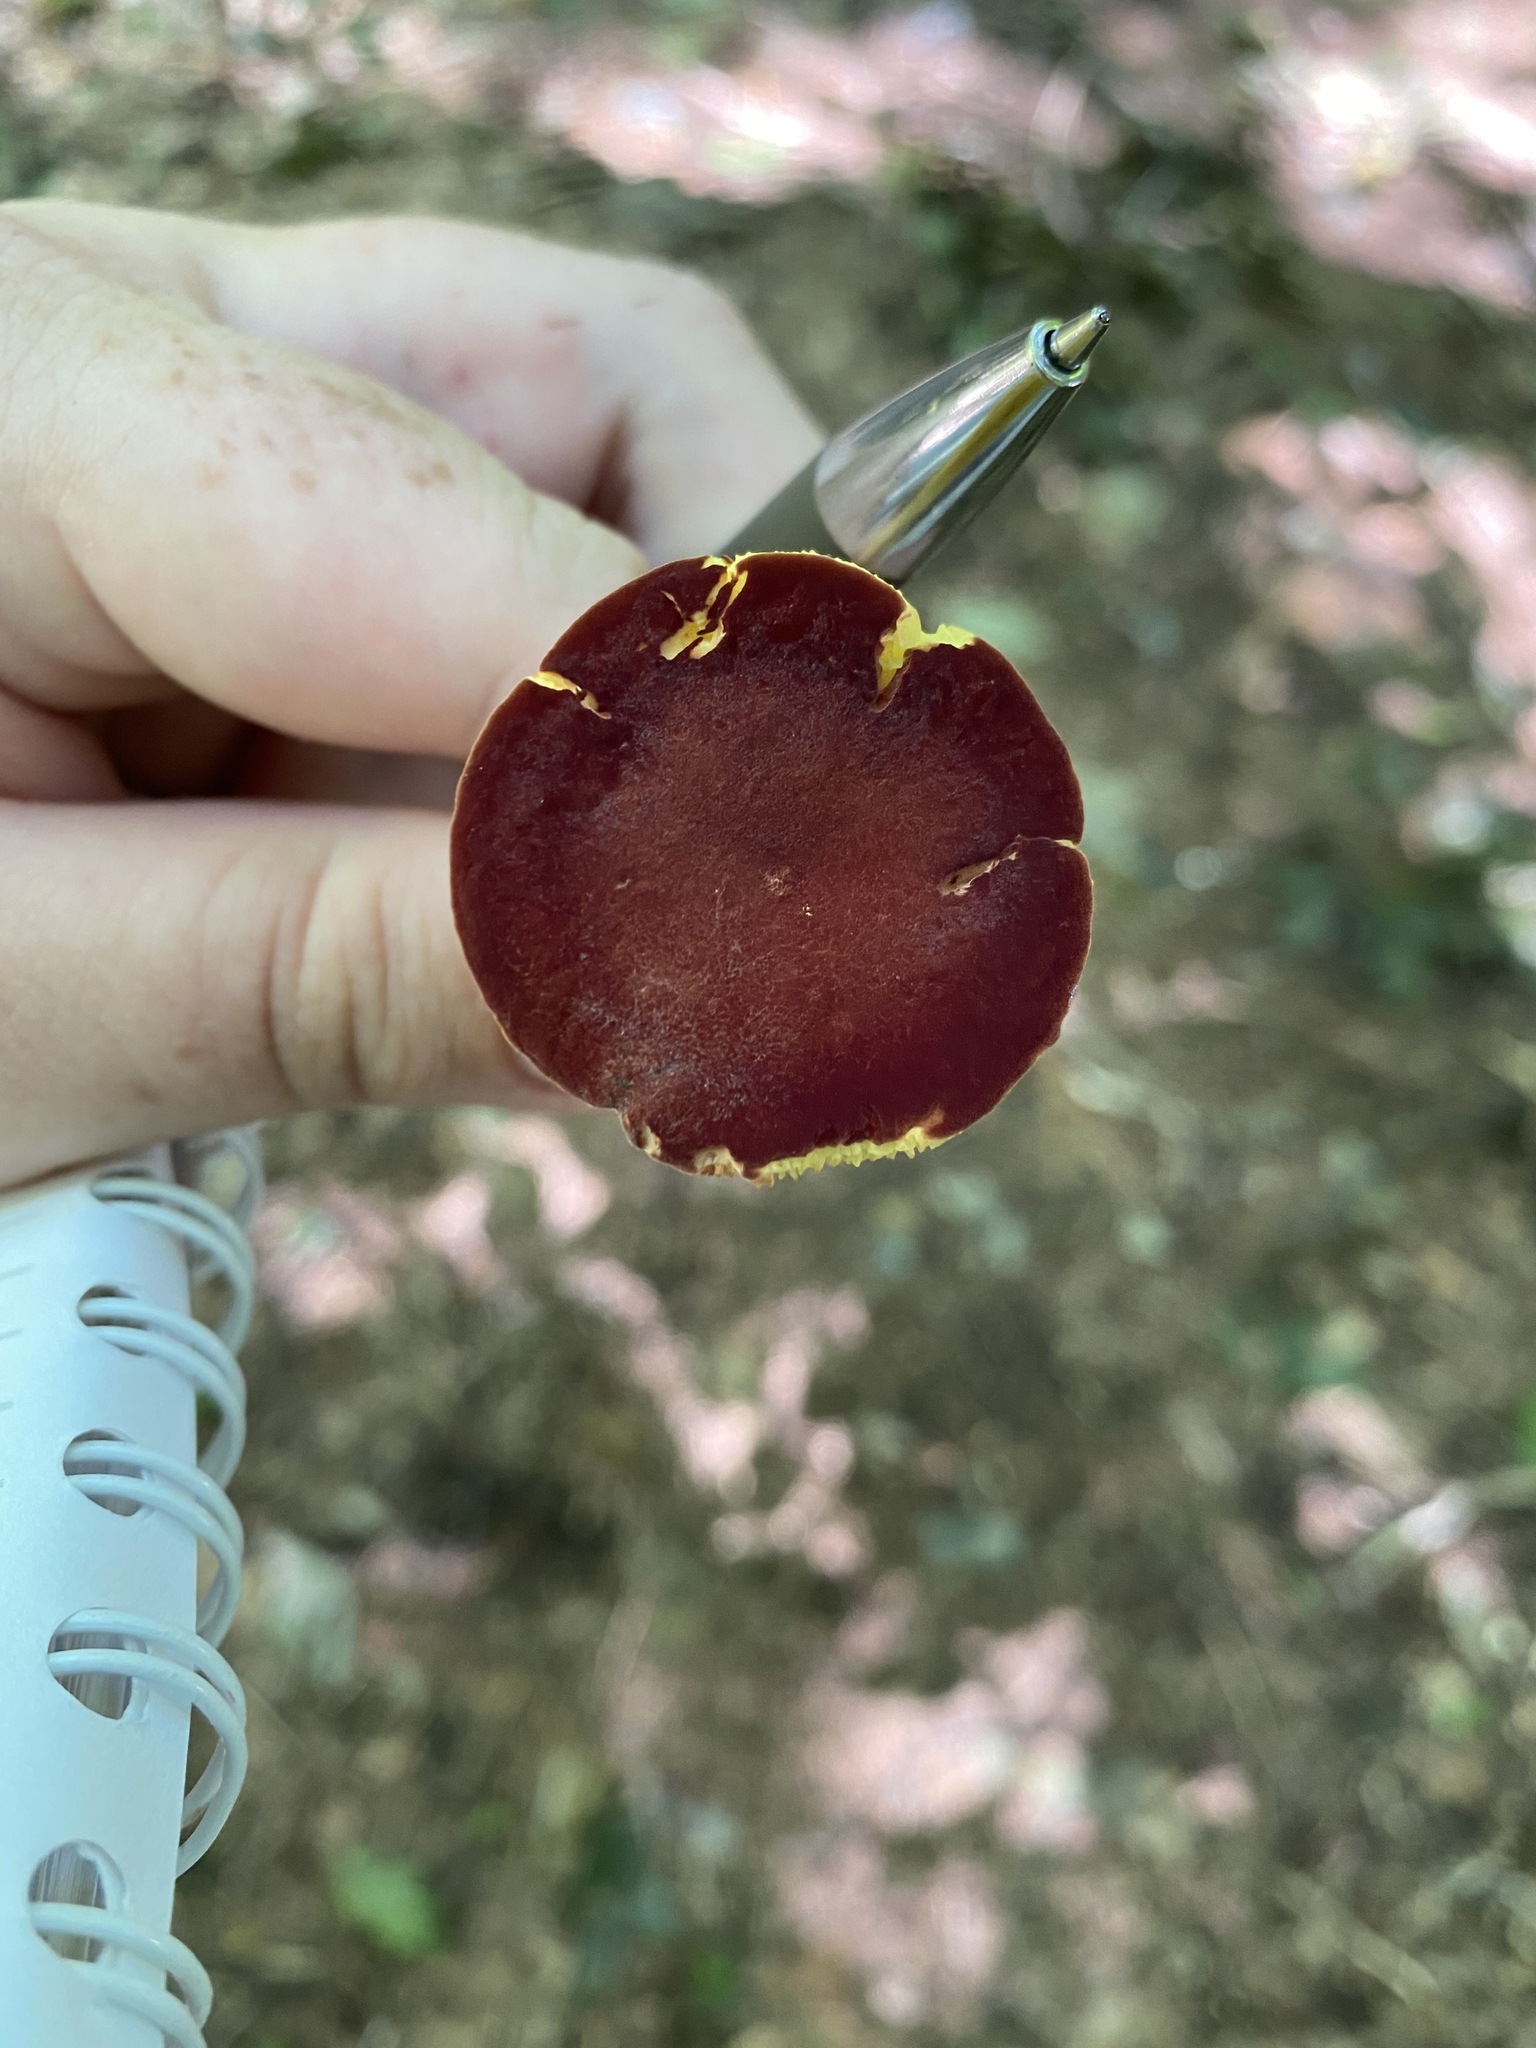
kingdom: Fungi
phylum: Basidiomycota
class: Agaricomycetes
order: Boletales
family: Boletaceae
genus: Phylloporus
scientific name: Phylloporus rhodoxanthus
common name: Golden gilled bolete
